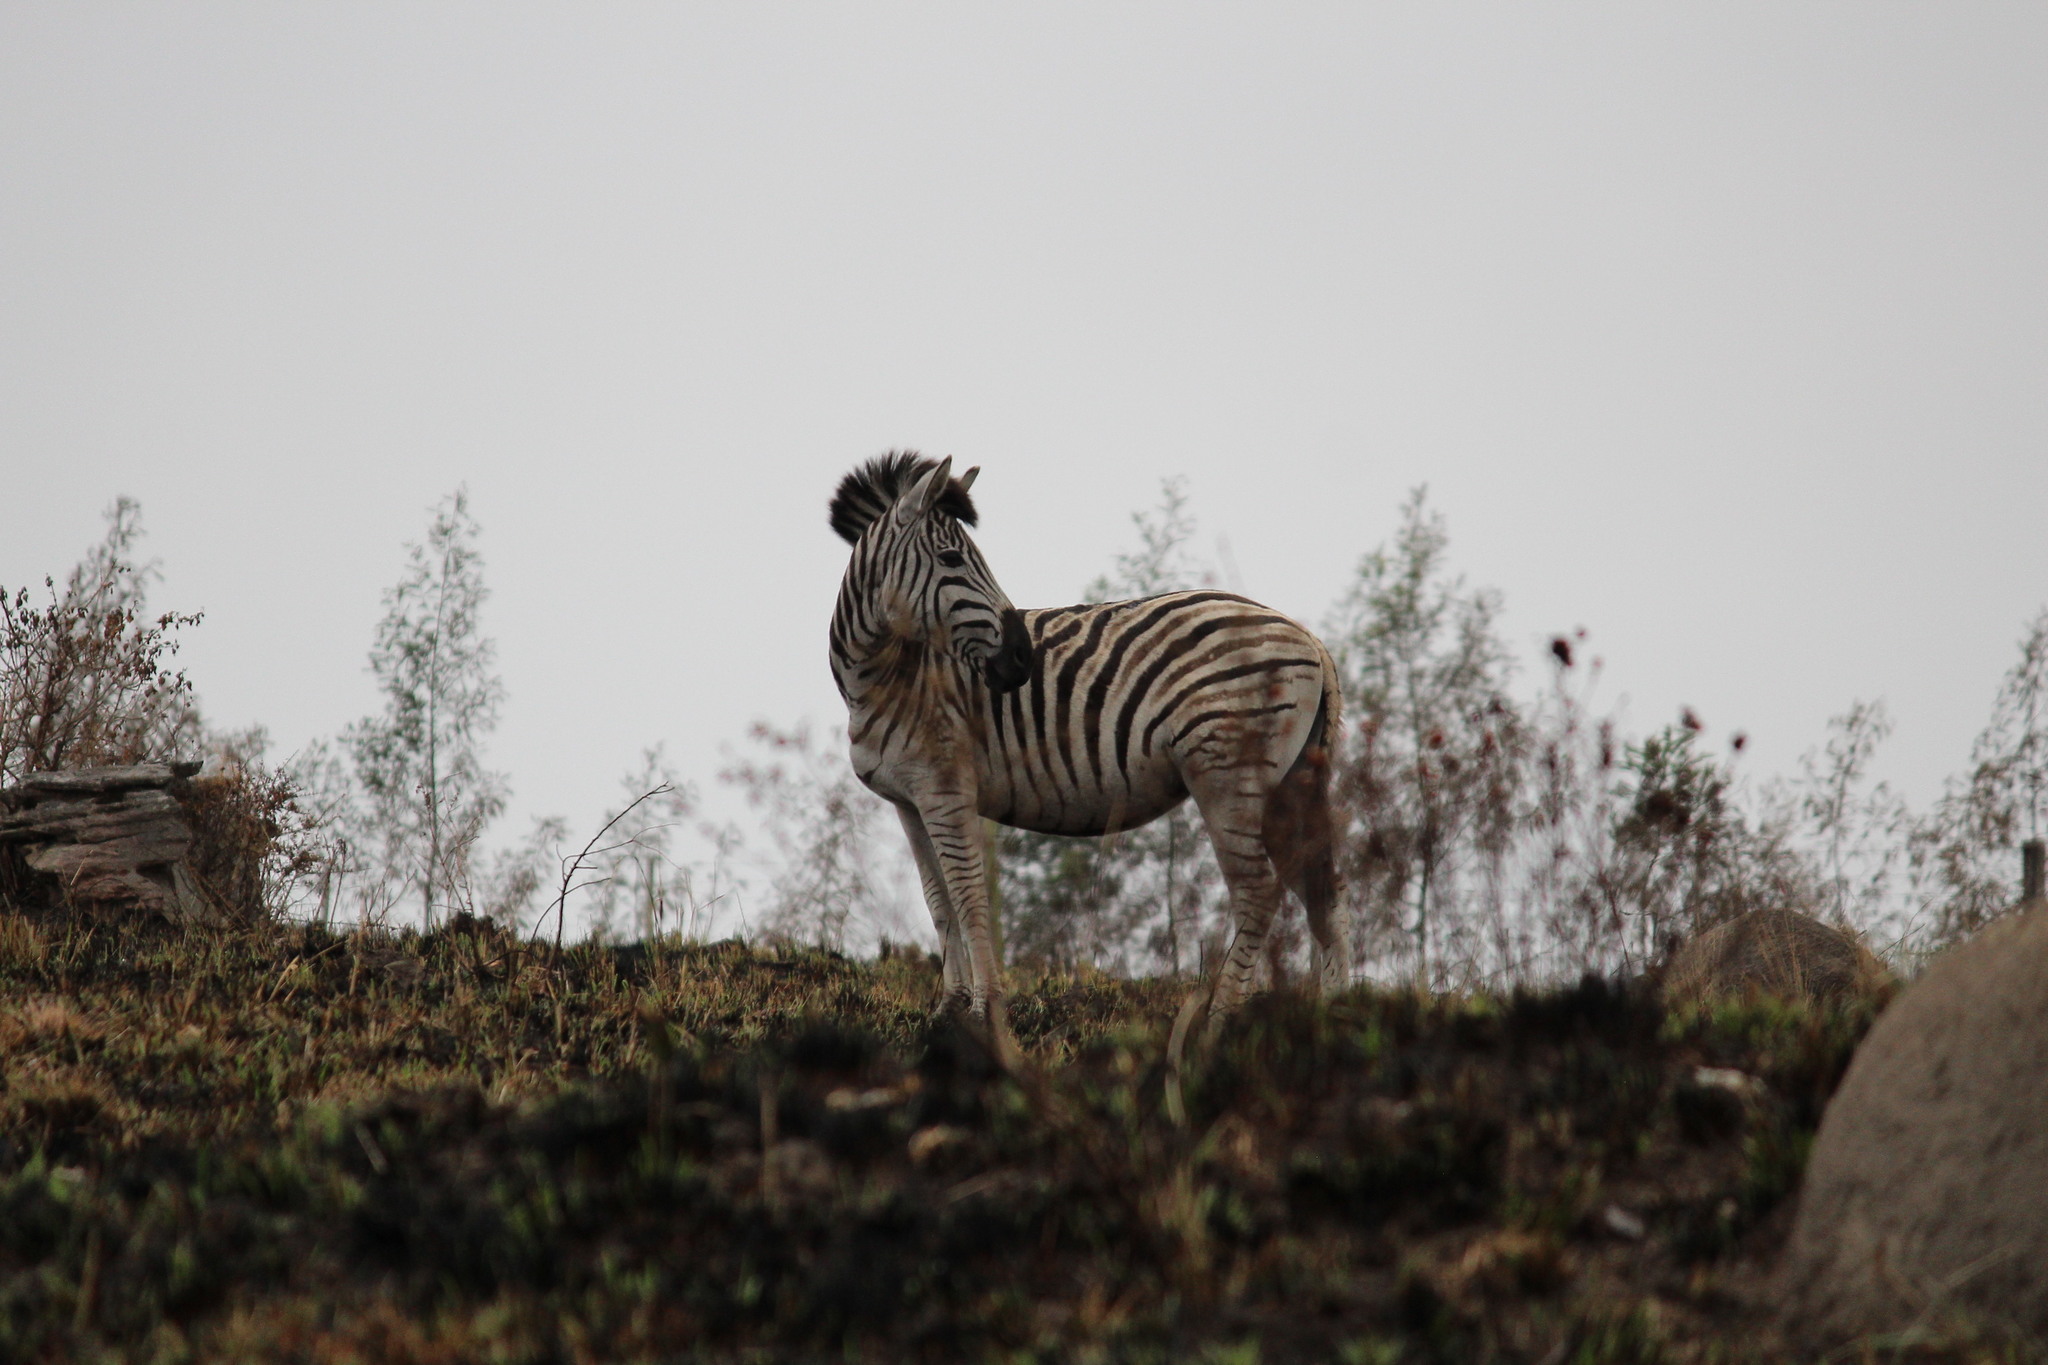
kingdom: Animalia
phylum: Chordata
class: Mammalia
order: Perissodactyla
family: Equidae
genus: Equus
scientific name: Equus quagga
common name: Plains zebra
